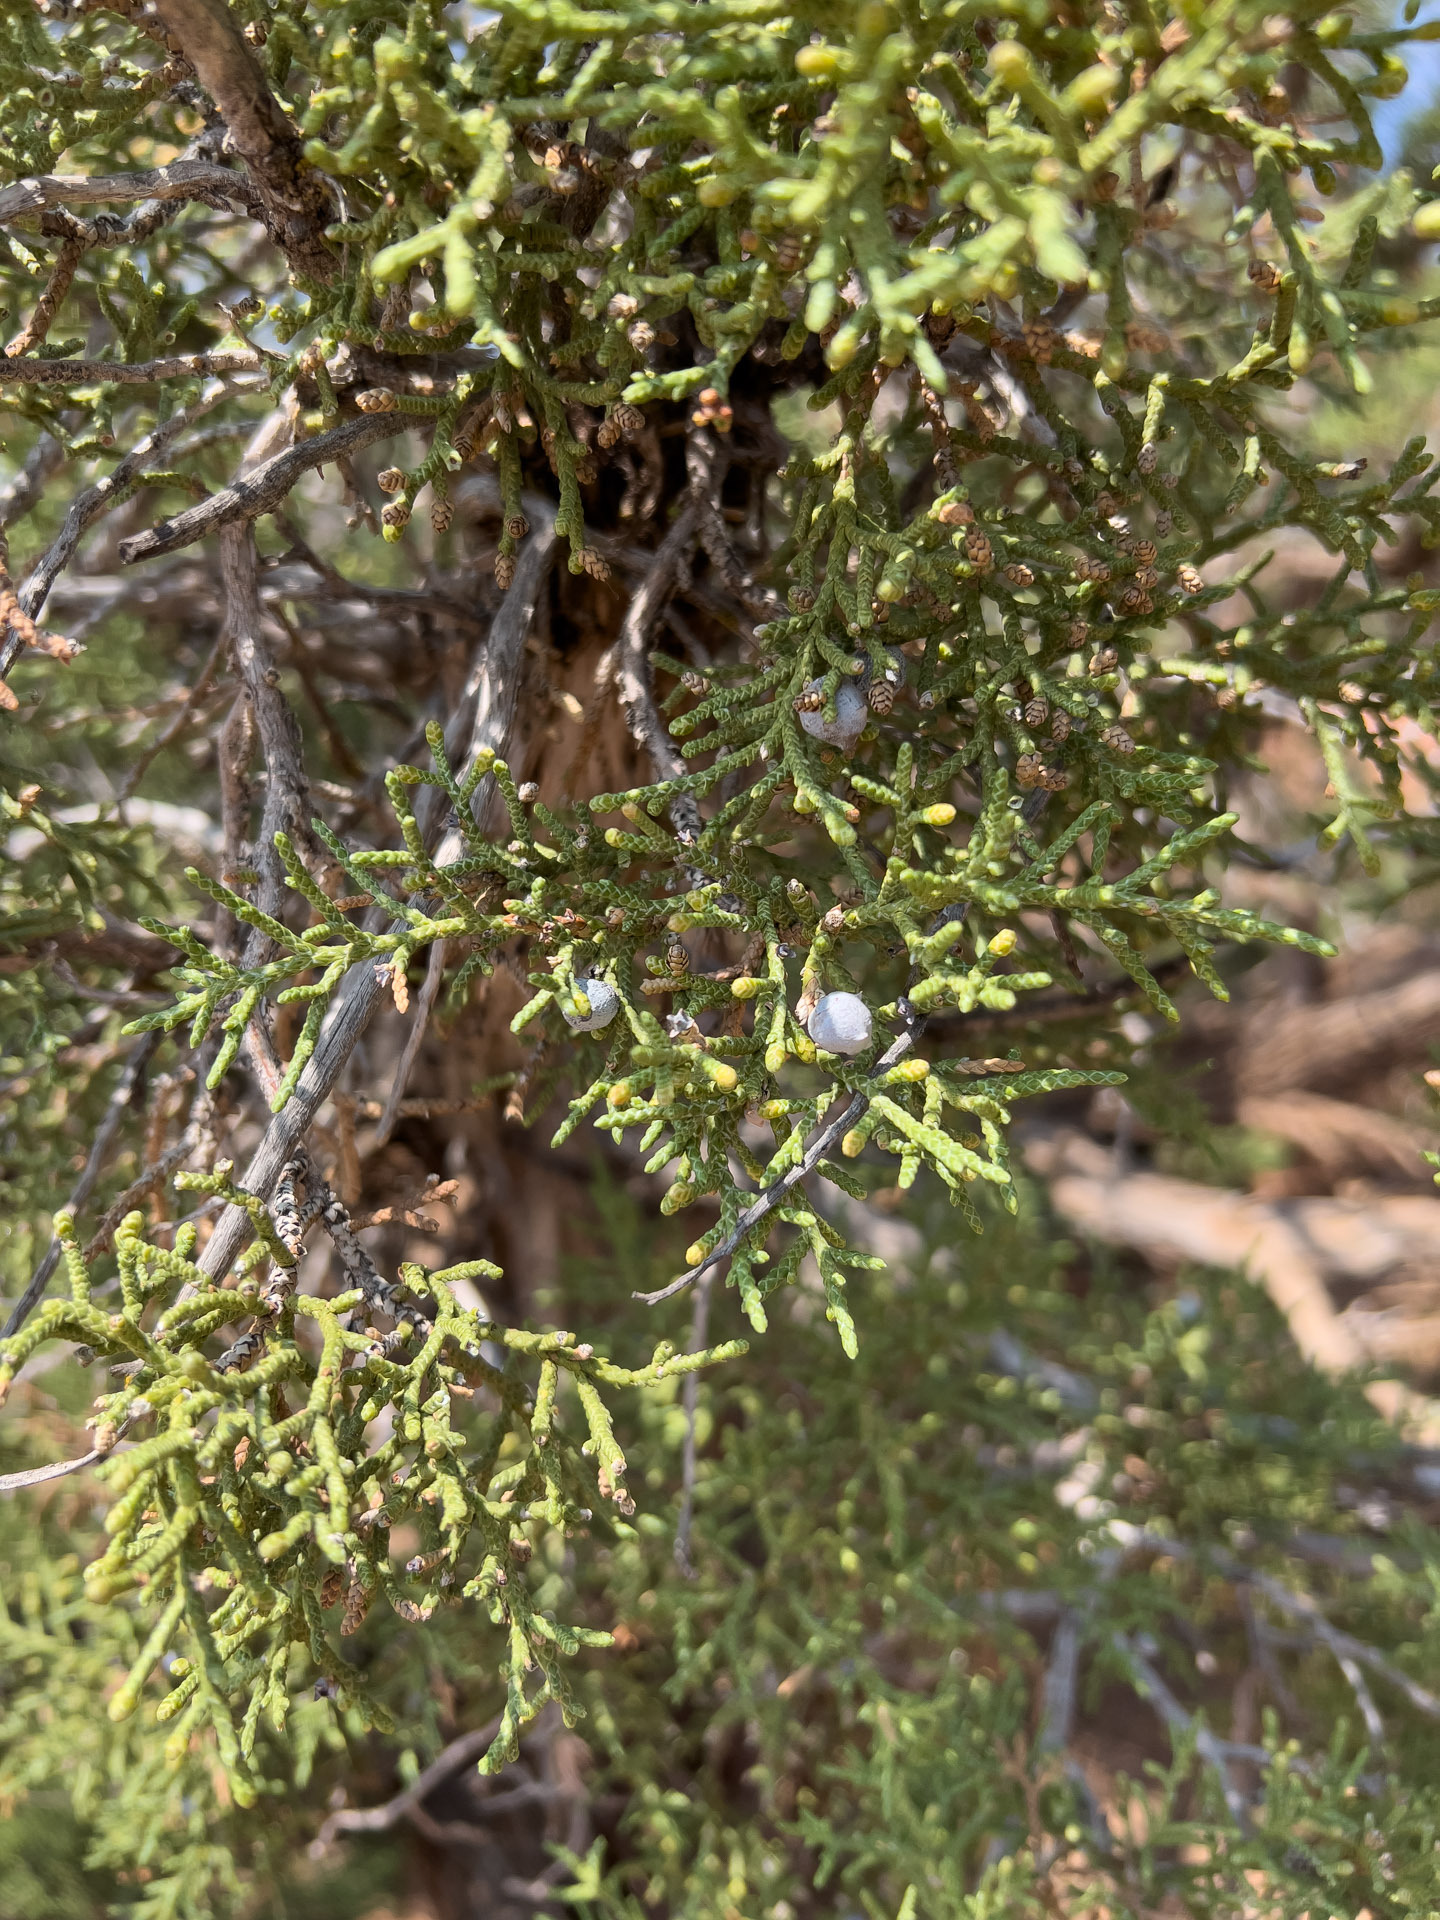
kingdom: Plantae
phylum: Tracheophyta
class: Pinopsida
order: Pinales
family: Cupressaceae
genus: Juniperus
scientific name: Juniperus osteosperma
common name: Utah juniper
